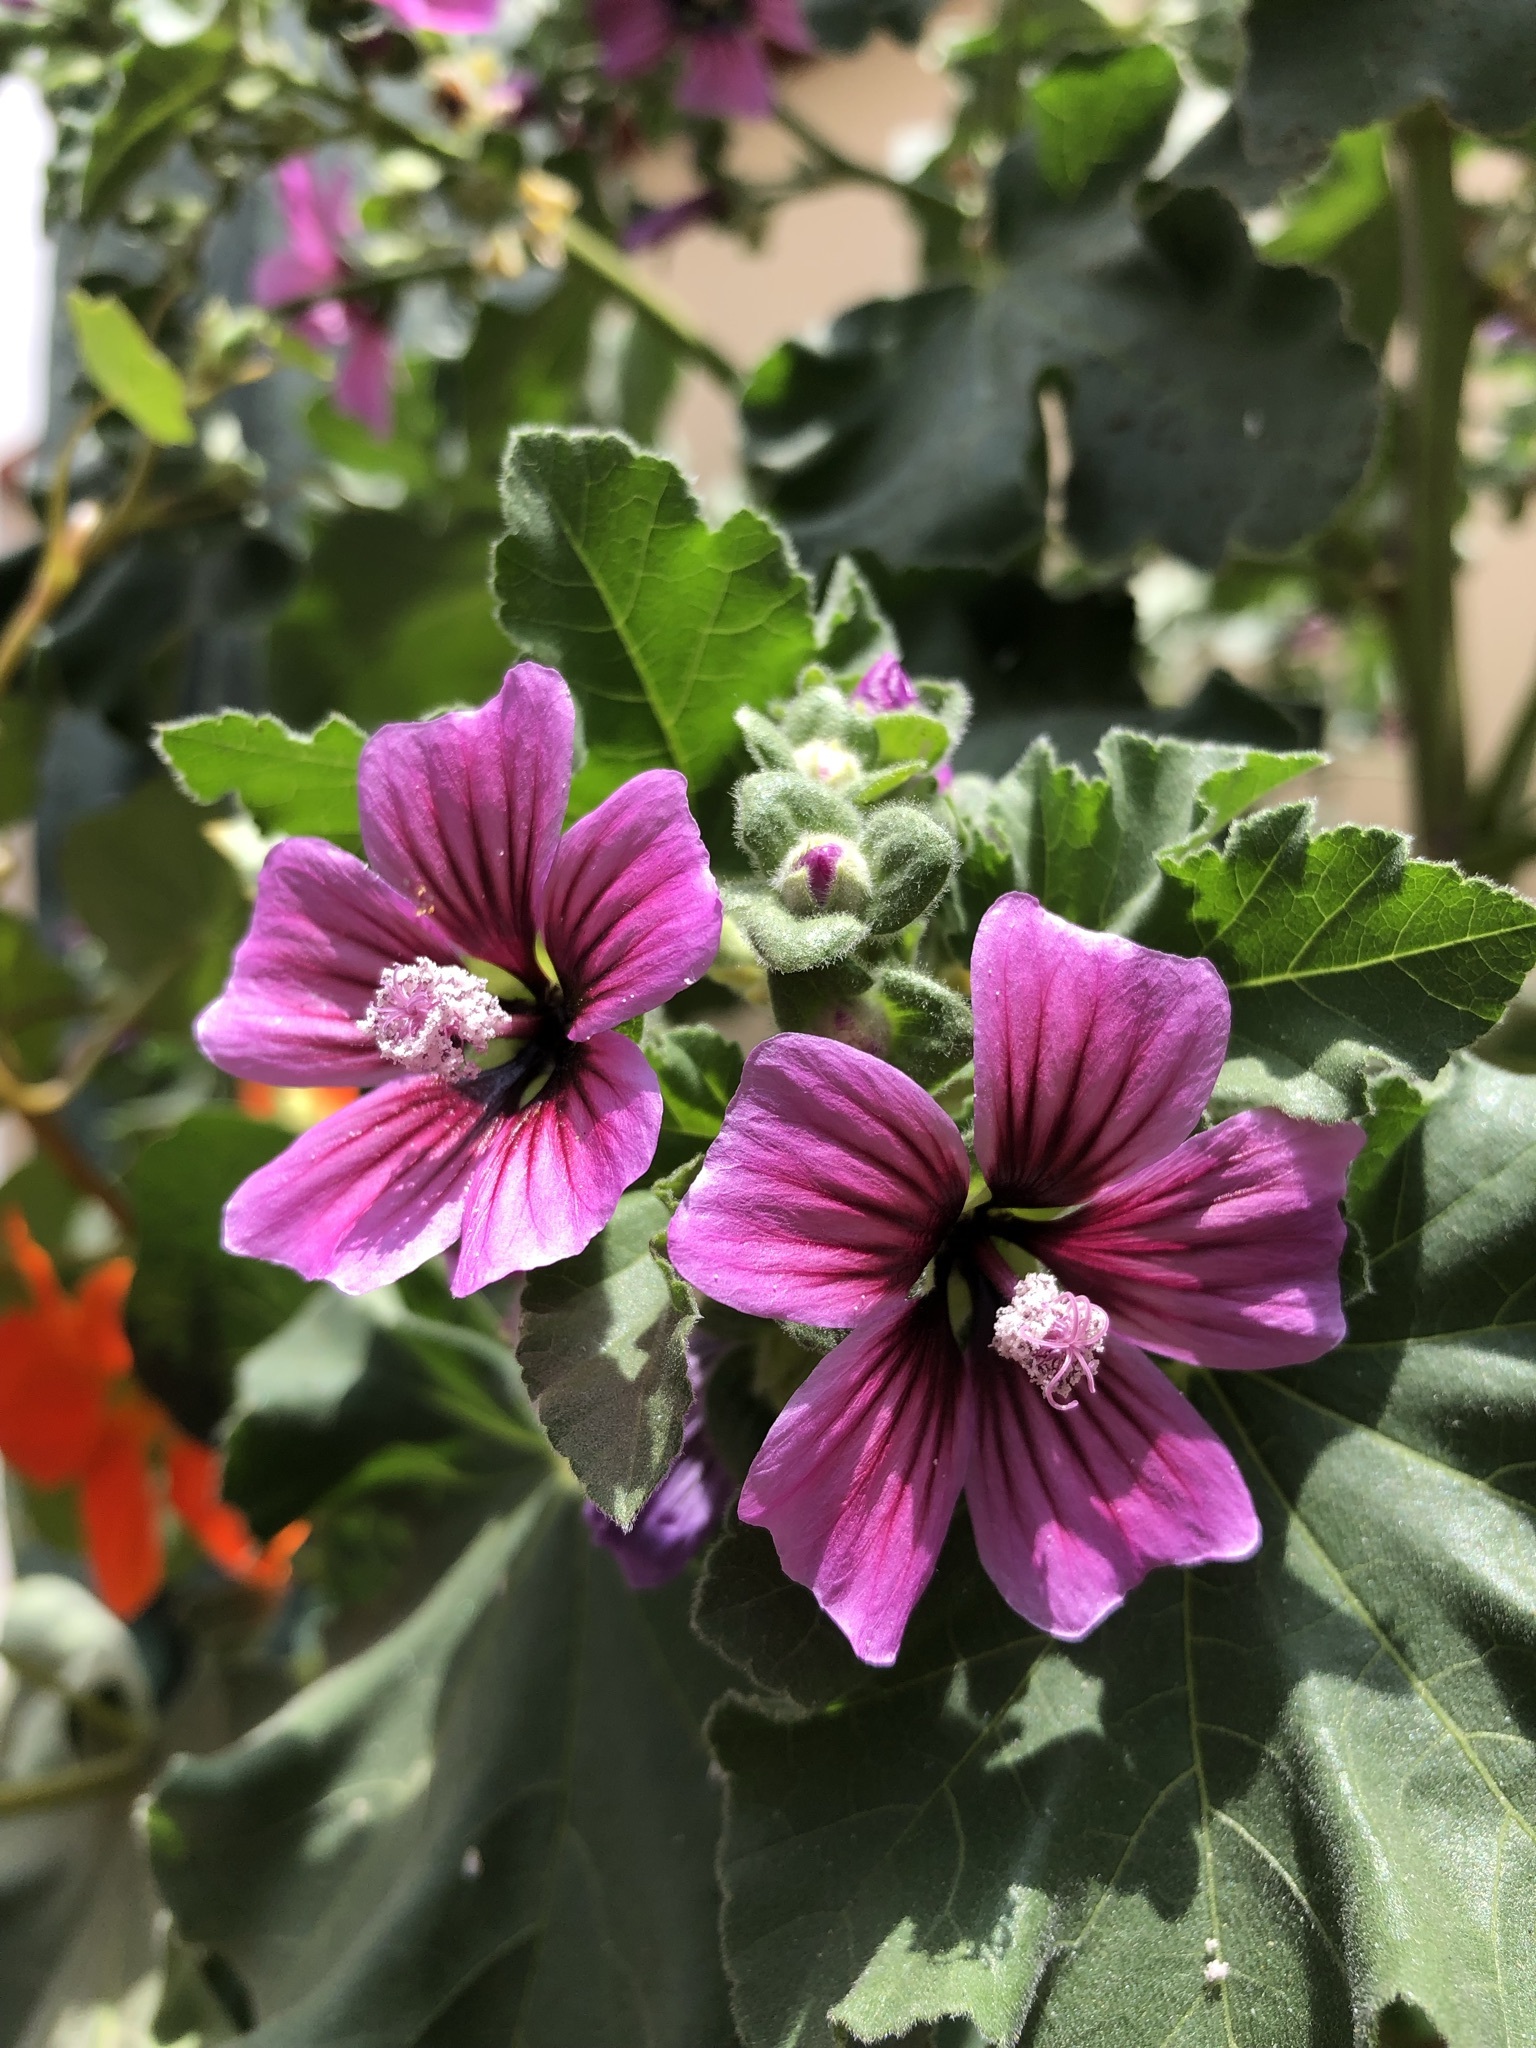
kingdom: Plantae
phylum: Tracheophyta
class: Magnoliopsida
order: Malvales
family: Malvaceae
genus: Malva
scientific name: Malva arborea
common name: Tree mallow
